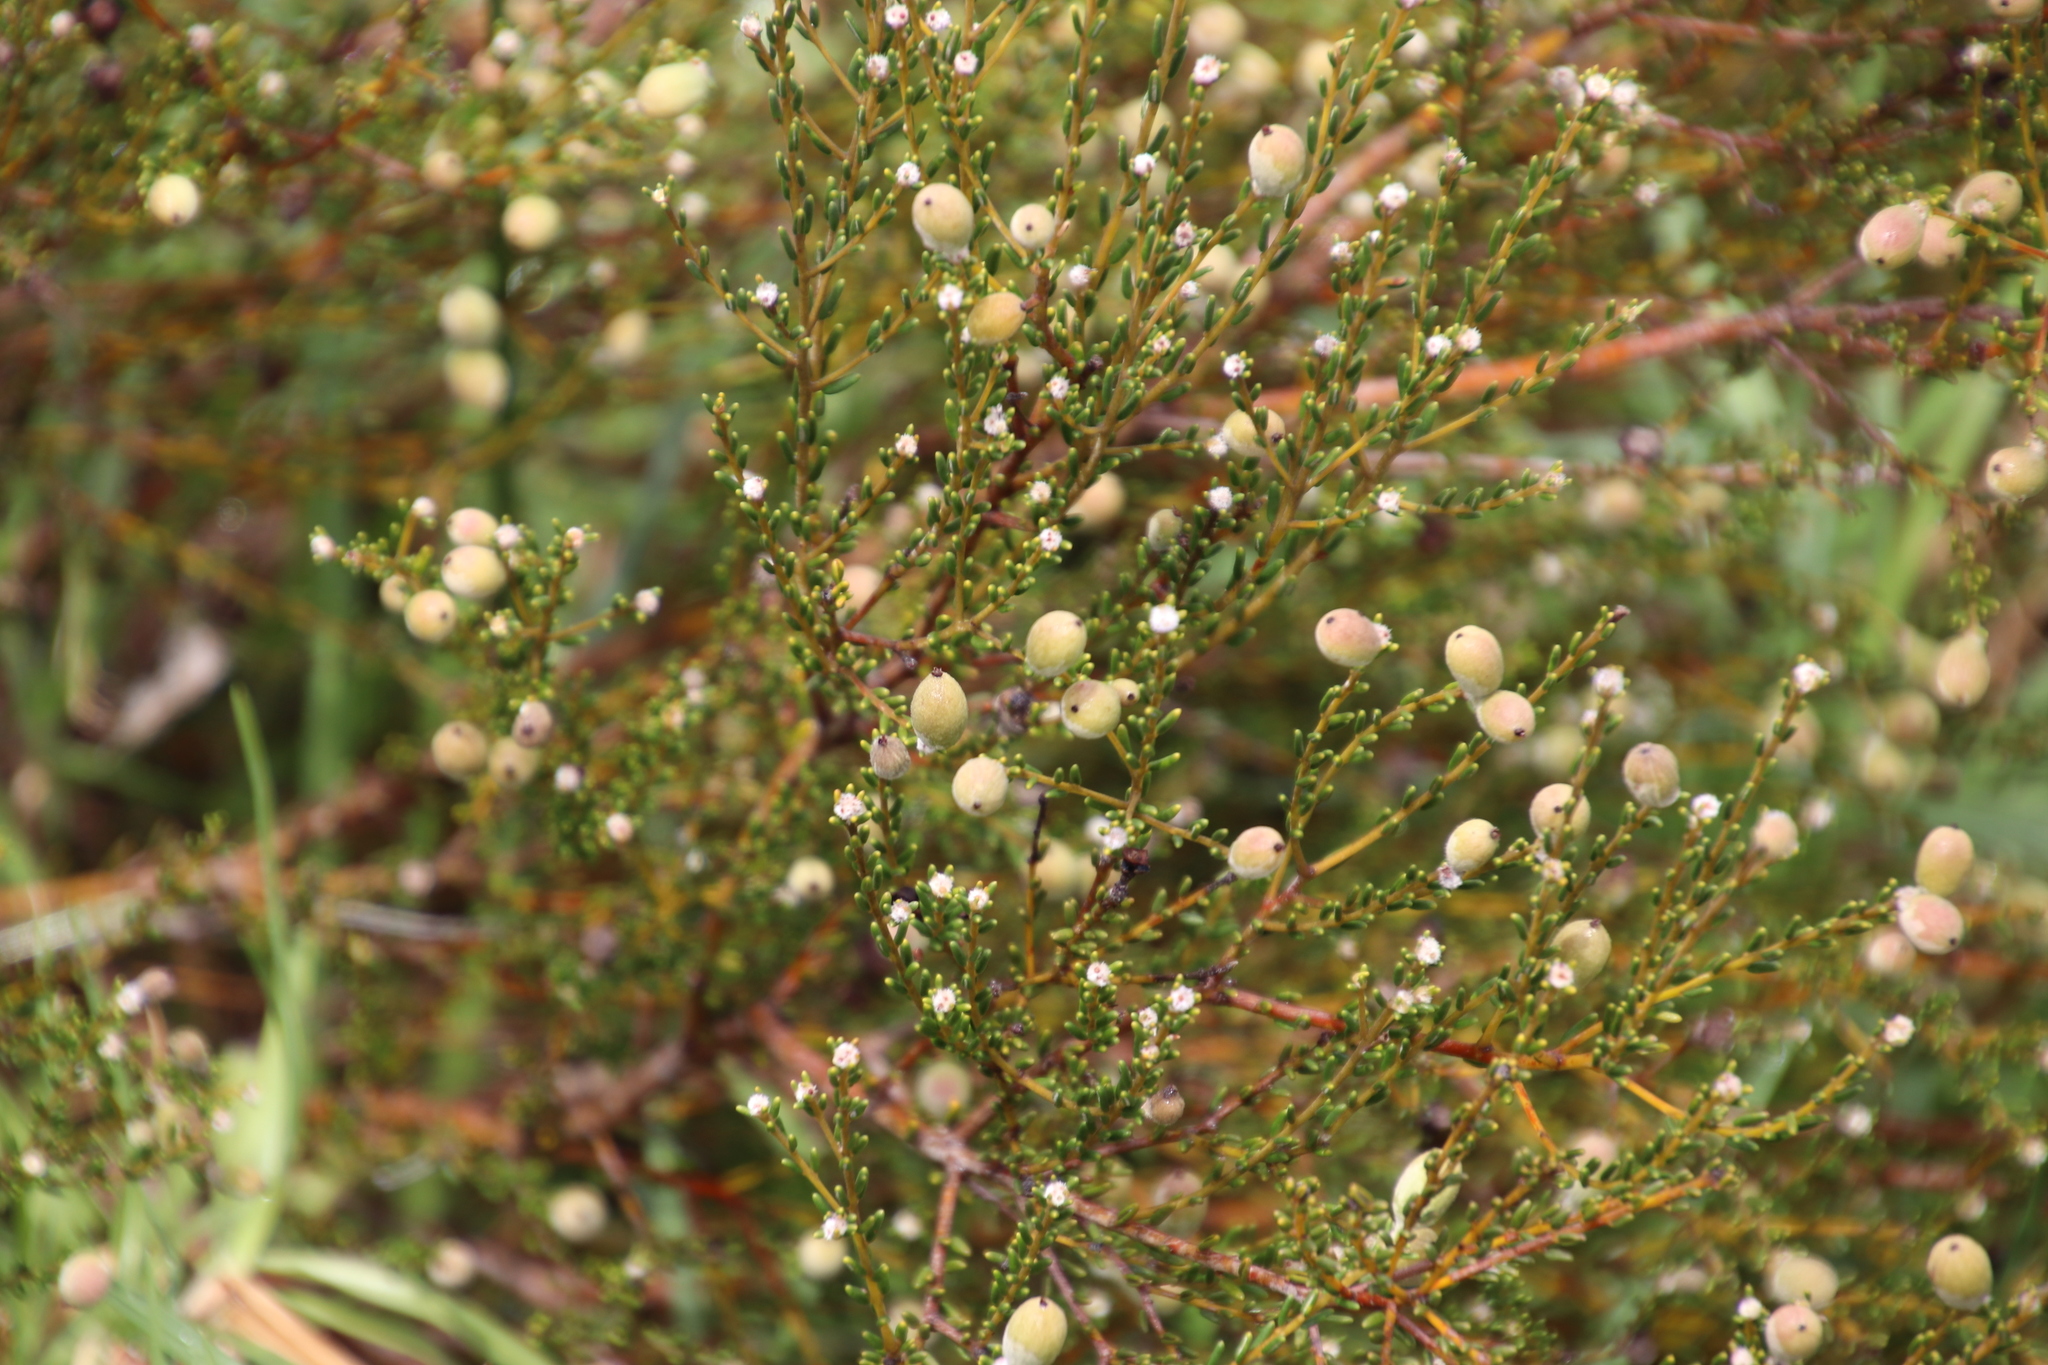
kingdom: Plantae
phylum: Tracheophyta
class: Magnoliopsida
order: Rosales
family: Rhamnaceae
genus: Phylica
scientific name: Phylica cephalantha
